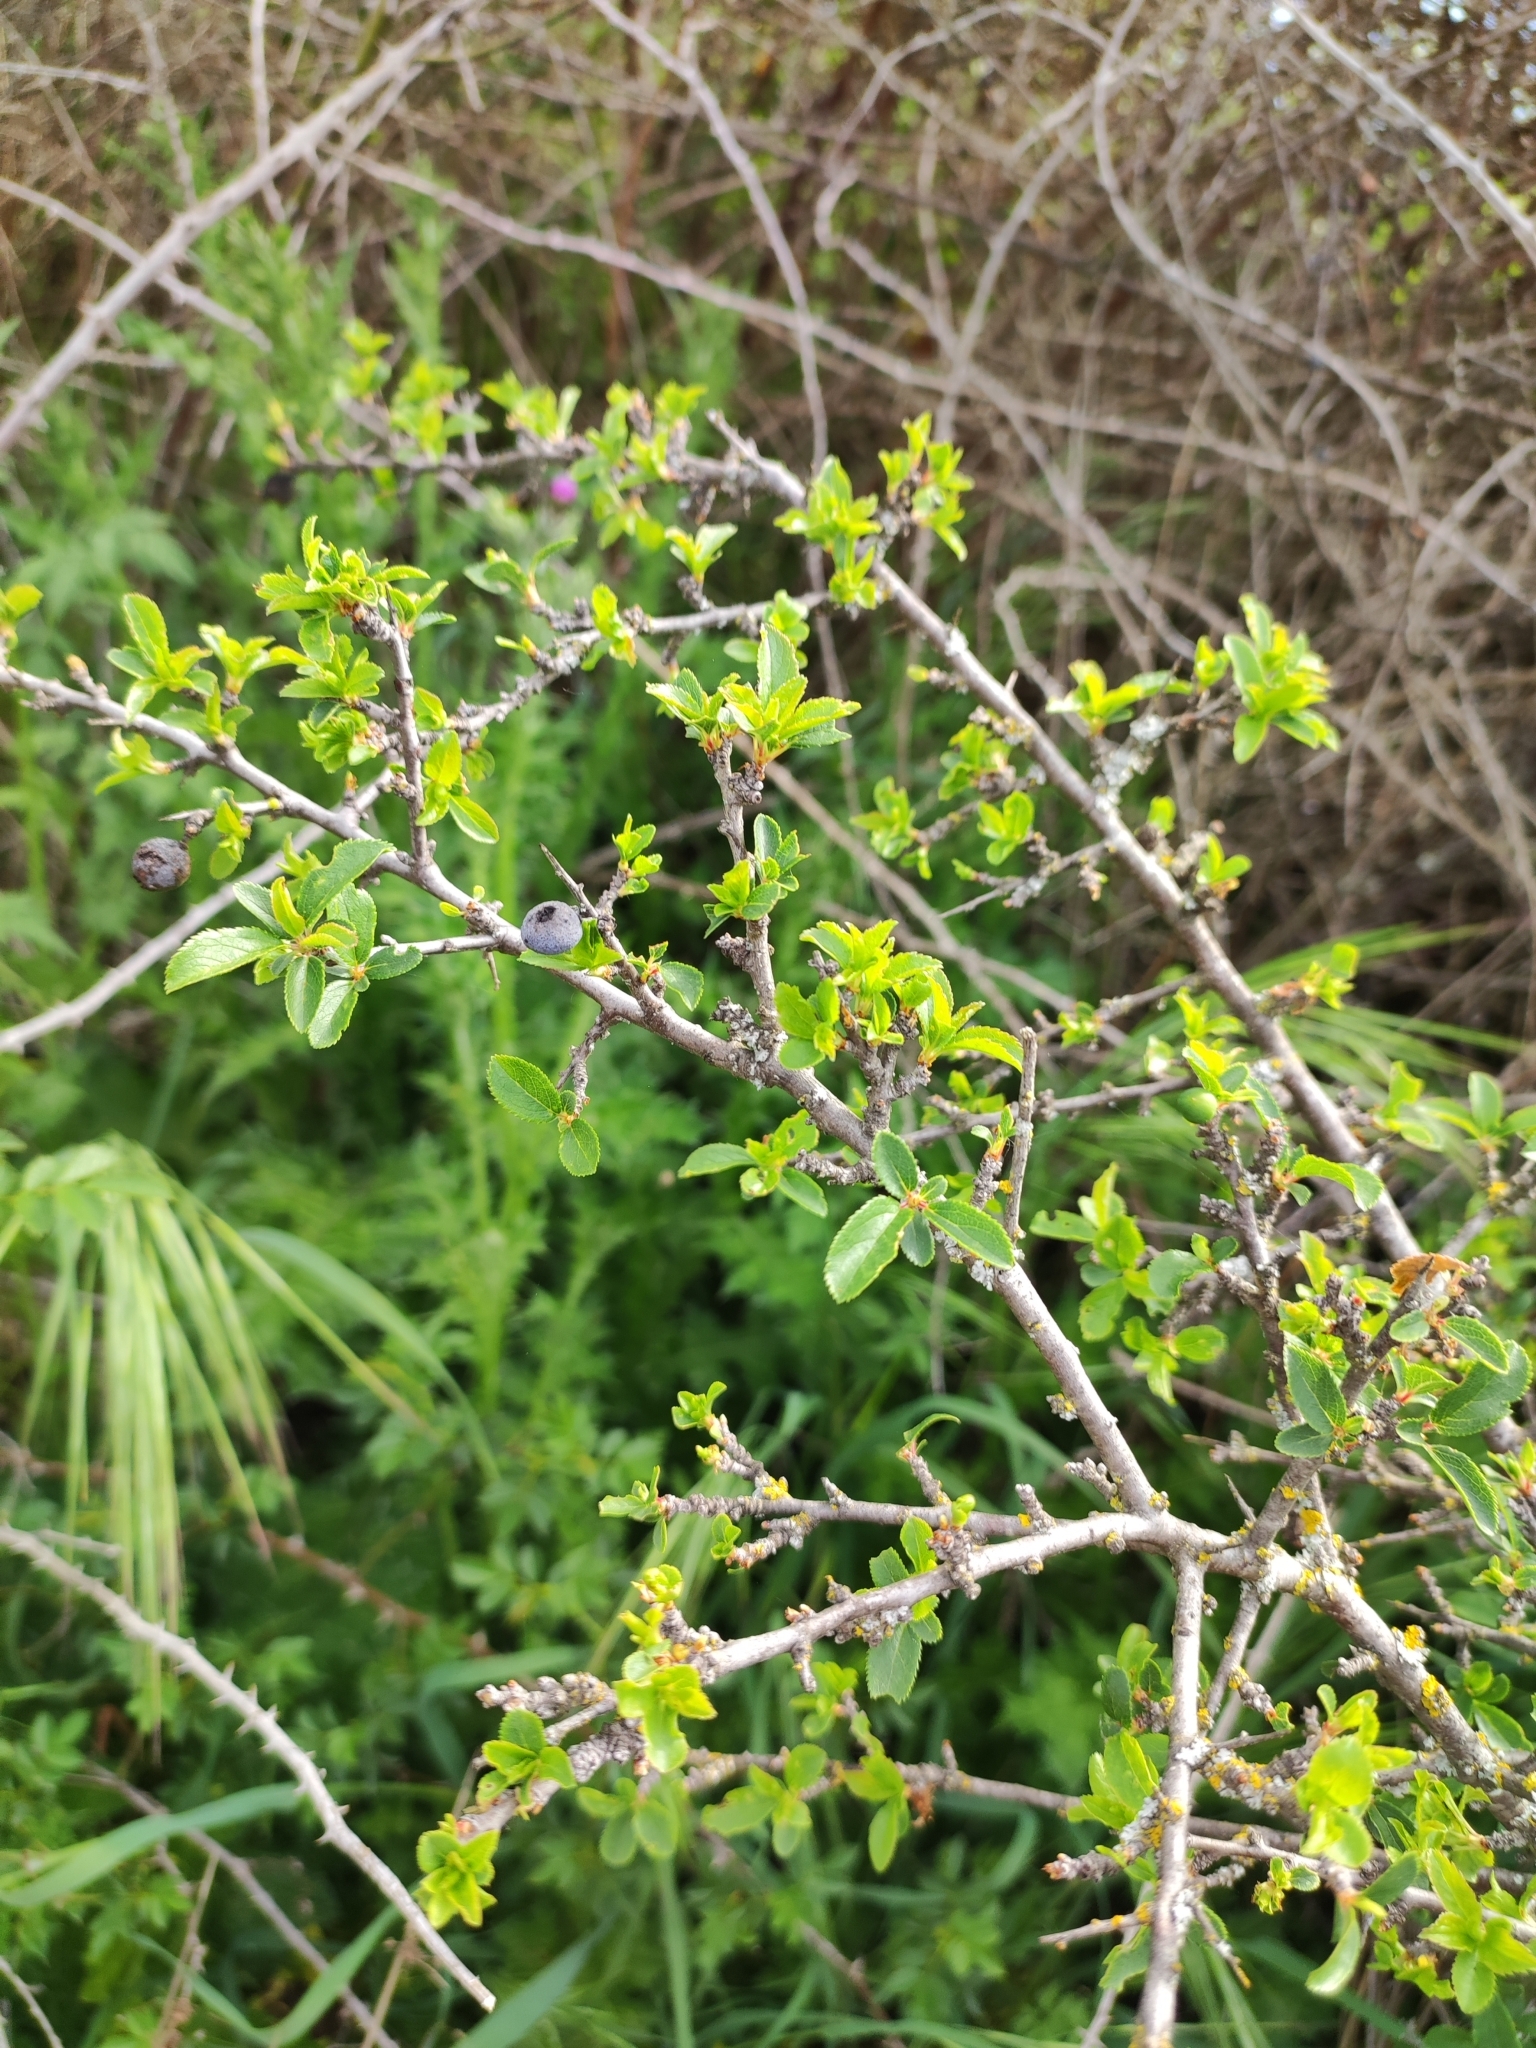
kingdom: Plantae
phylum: Tracheophyta
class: Magnoliopsida
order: Rosales
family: Rosaceae
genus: Prunus
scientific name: Prunus spinosa
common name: Blackthorn
